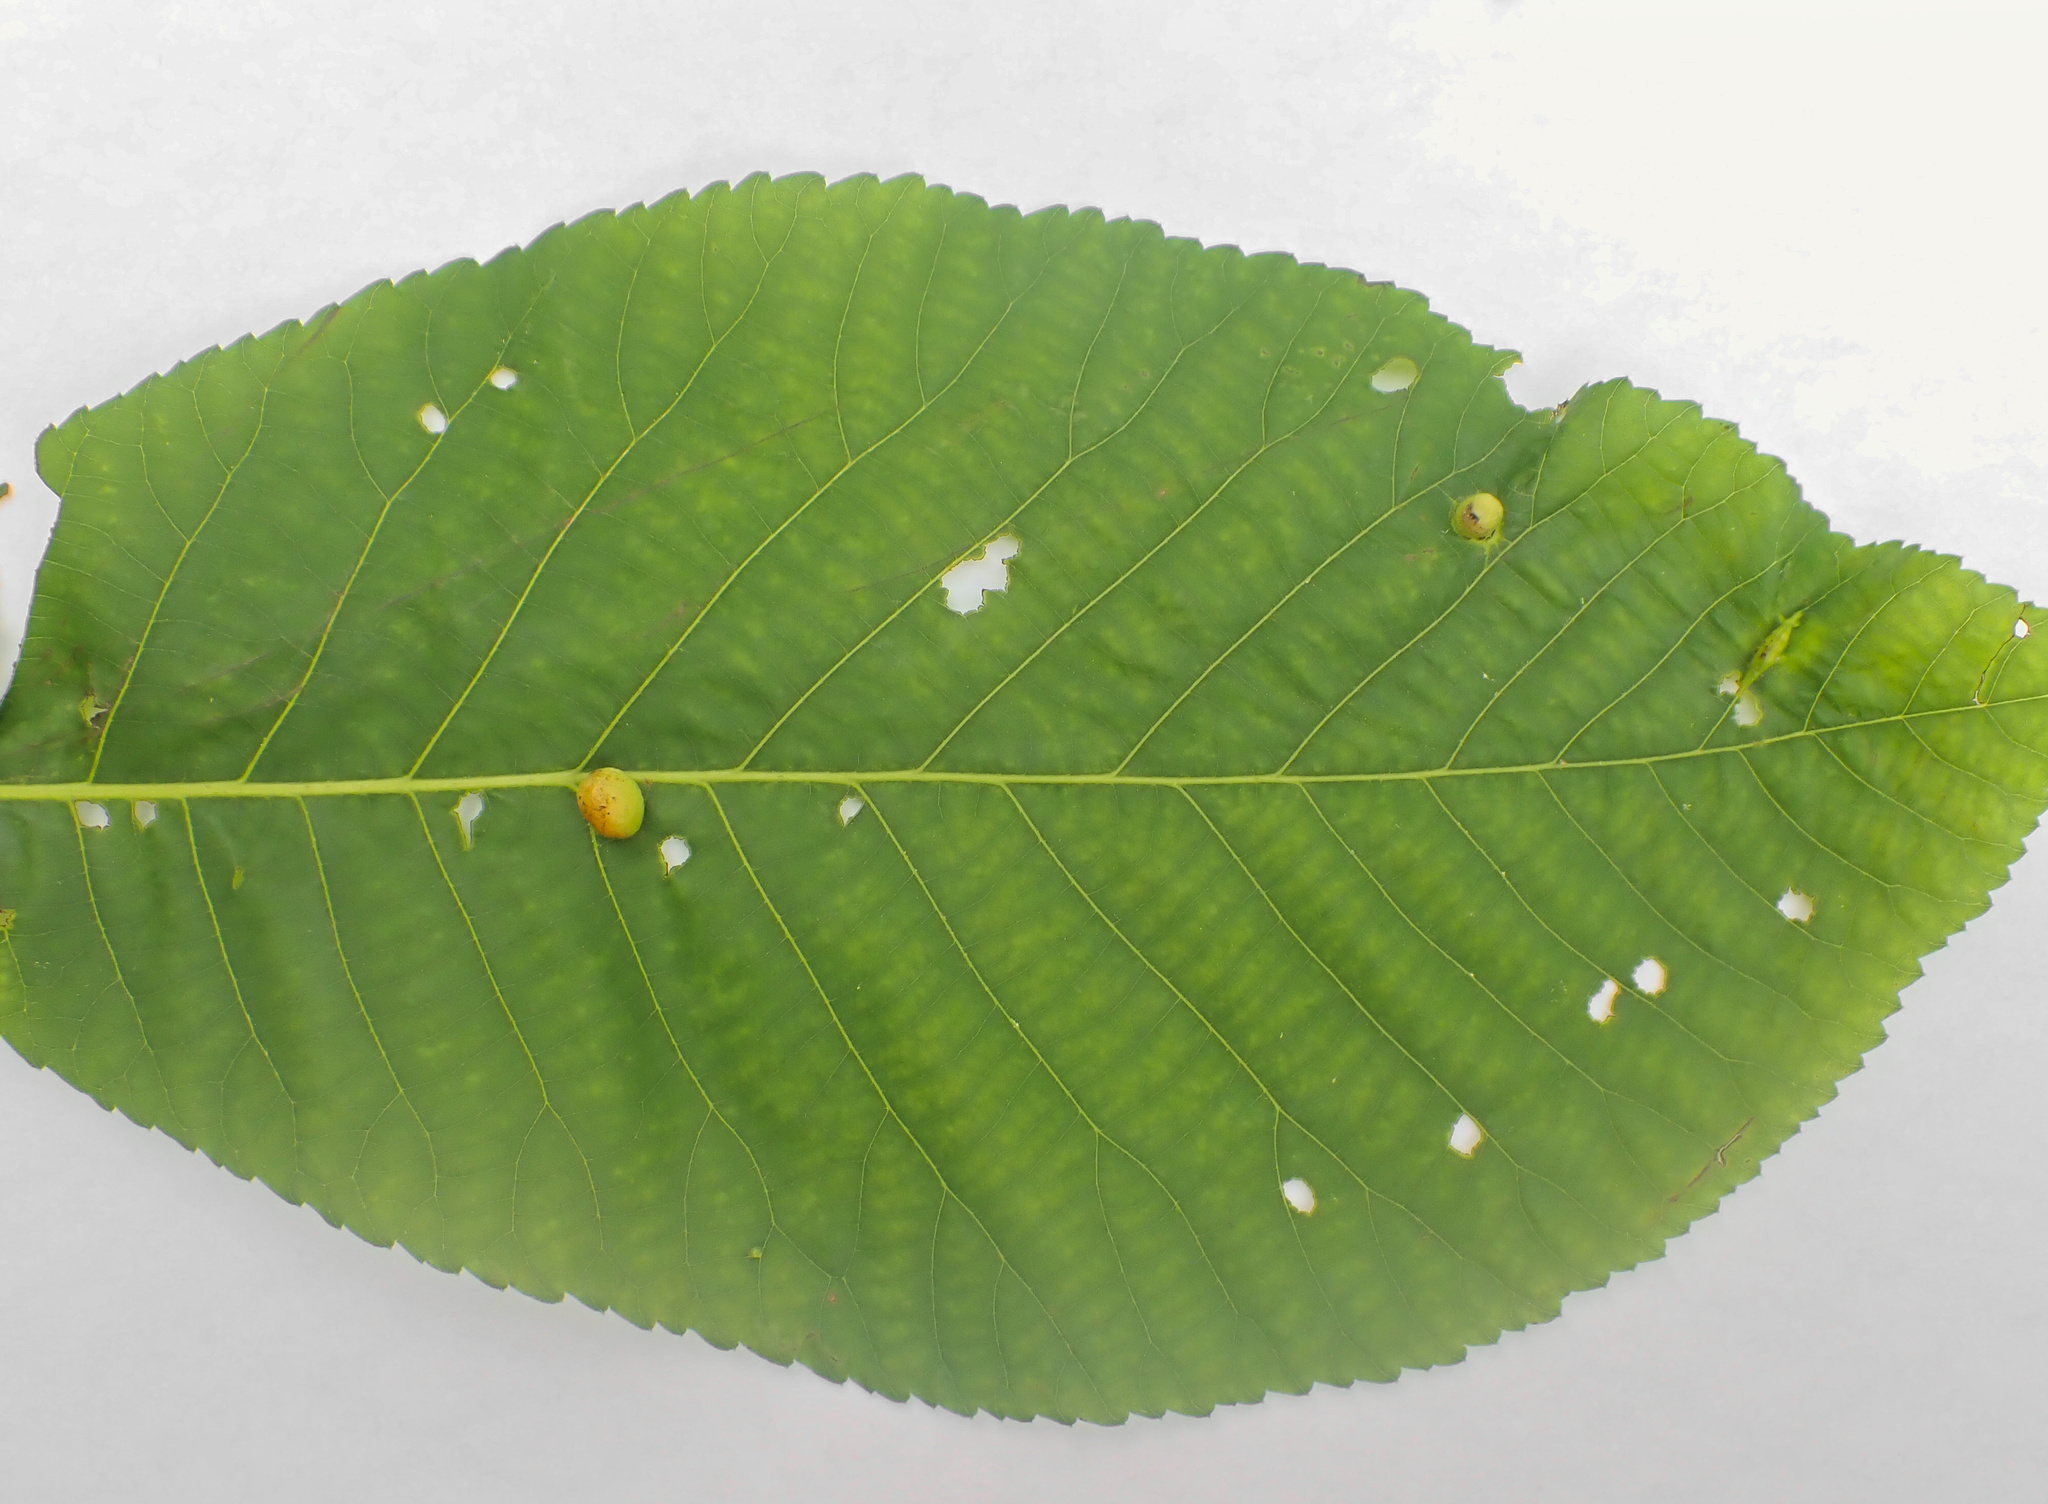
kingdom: Animalia
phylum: Arthropoda
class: Insecta
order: Hemiptera
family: Phylloxeridae
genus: Phylloxera
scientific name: Phylloxera caryae-globuli
